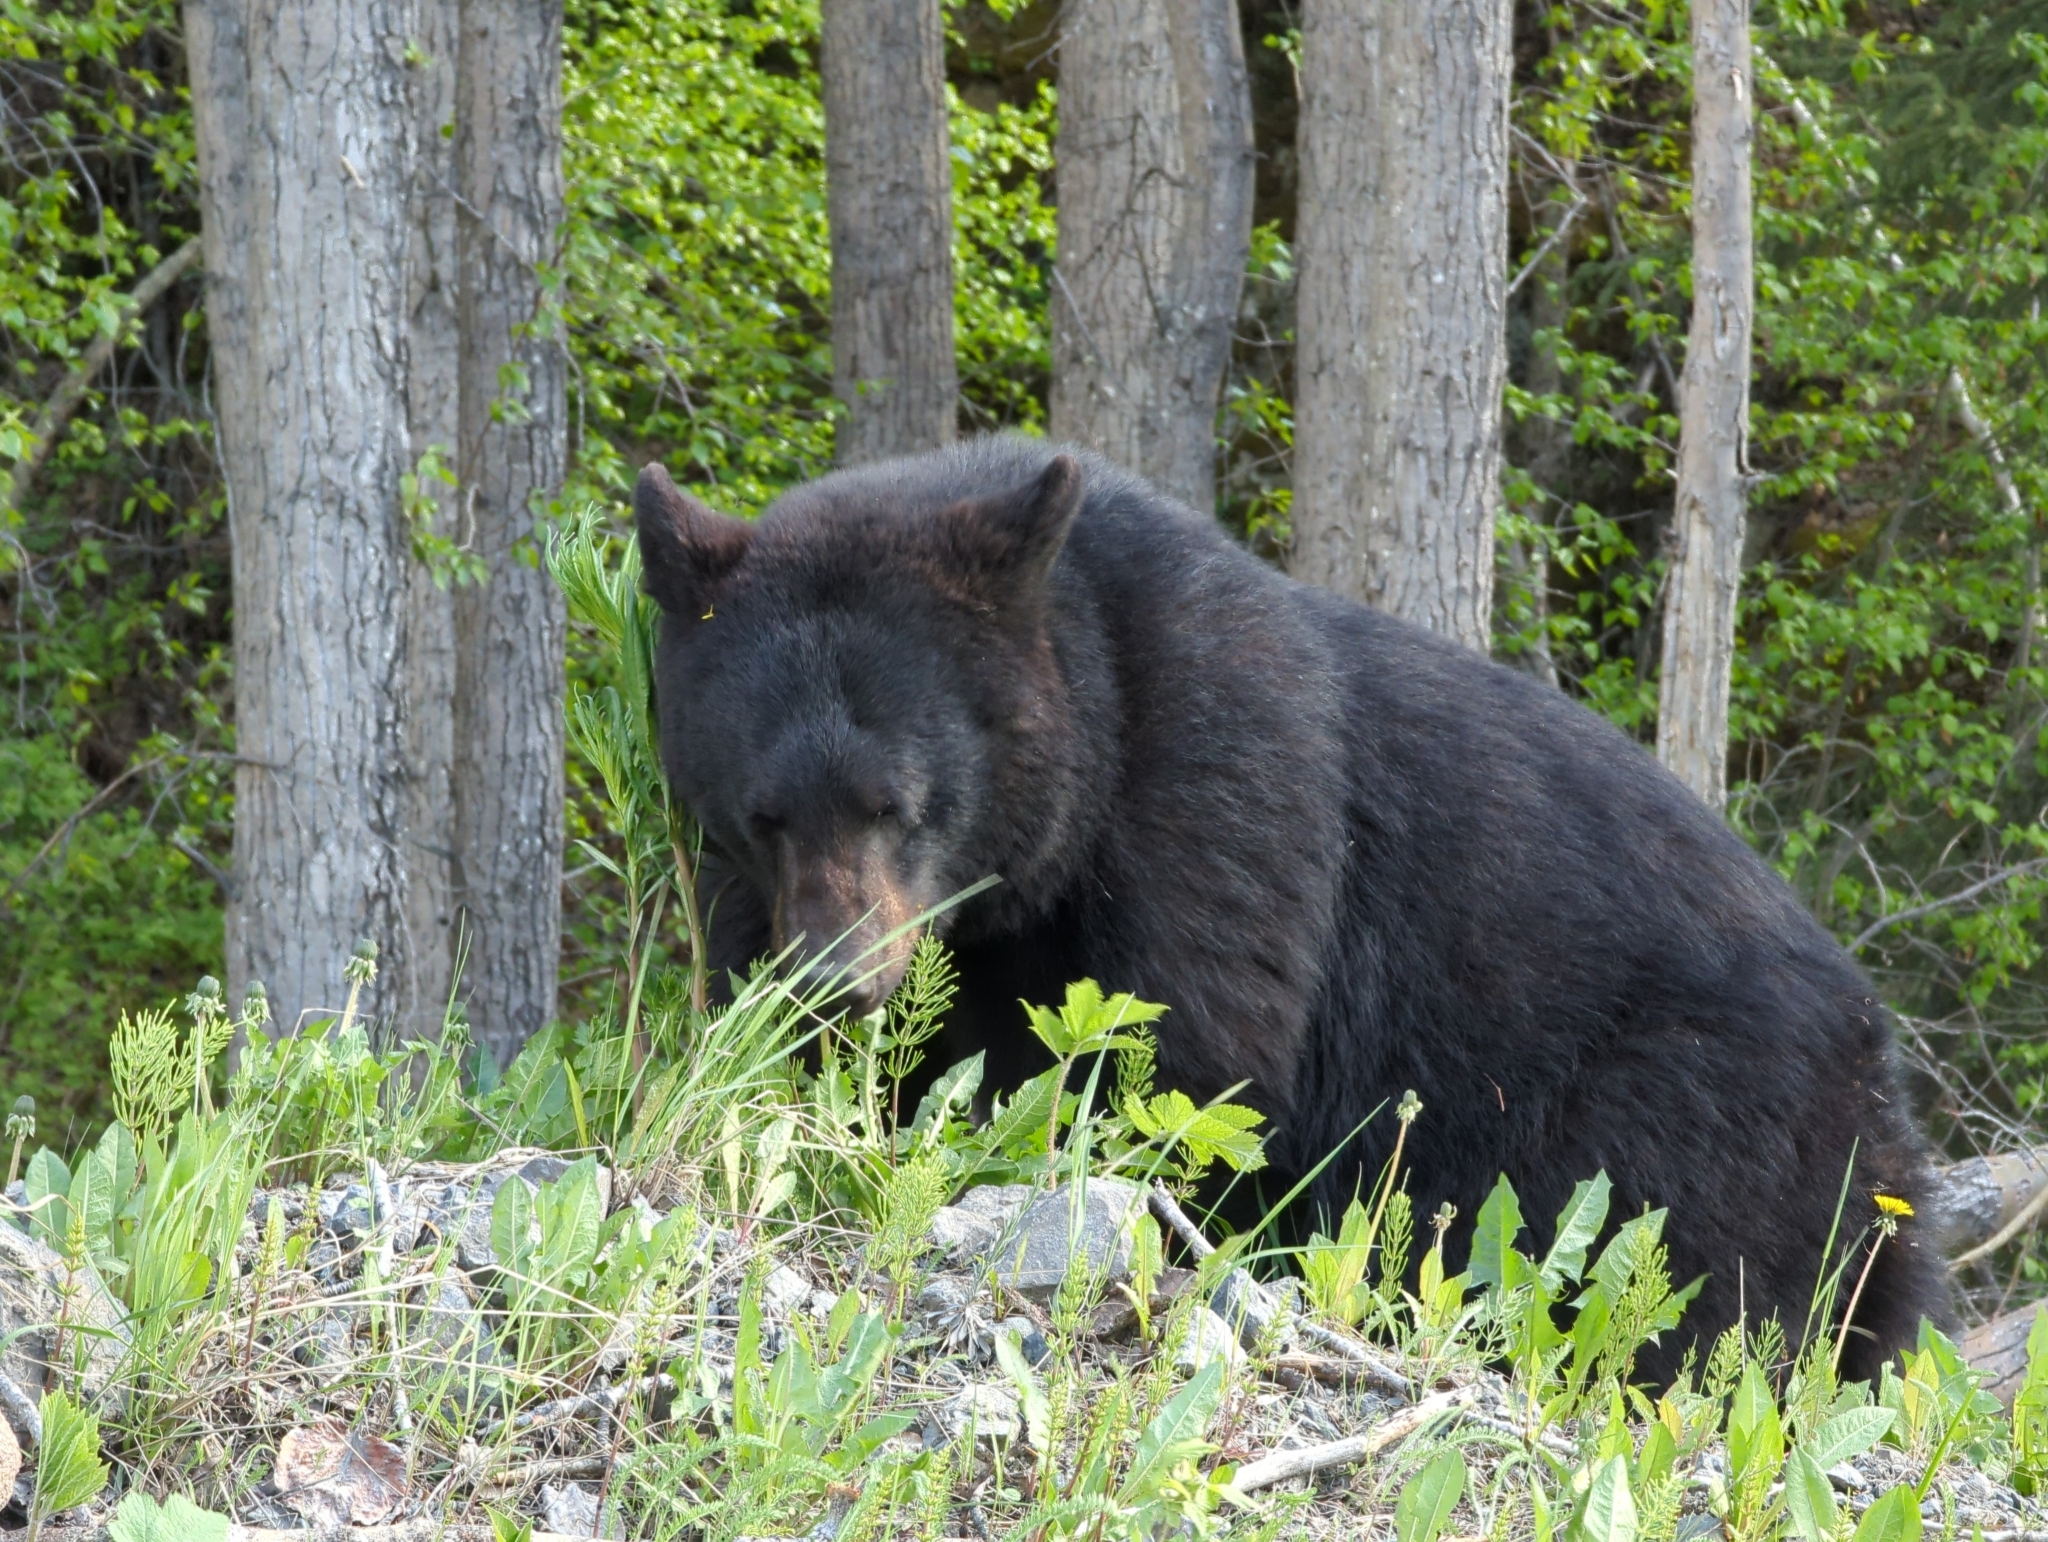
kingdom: Animalia
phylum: Chordata
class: Mammalia
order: Carnivora
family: Ursidae
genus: Ursus
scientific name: Ursus americanus
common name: American black bear
